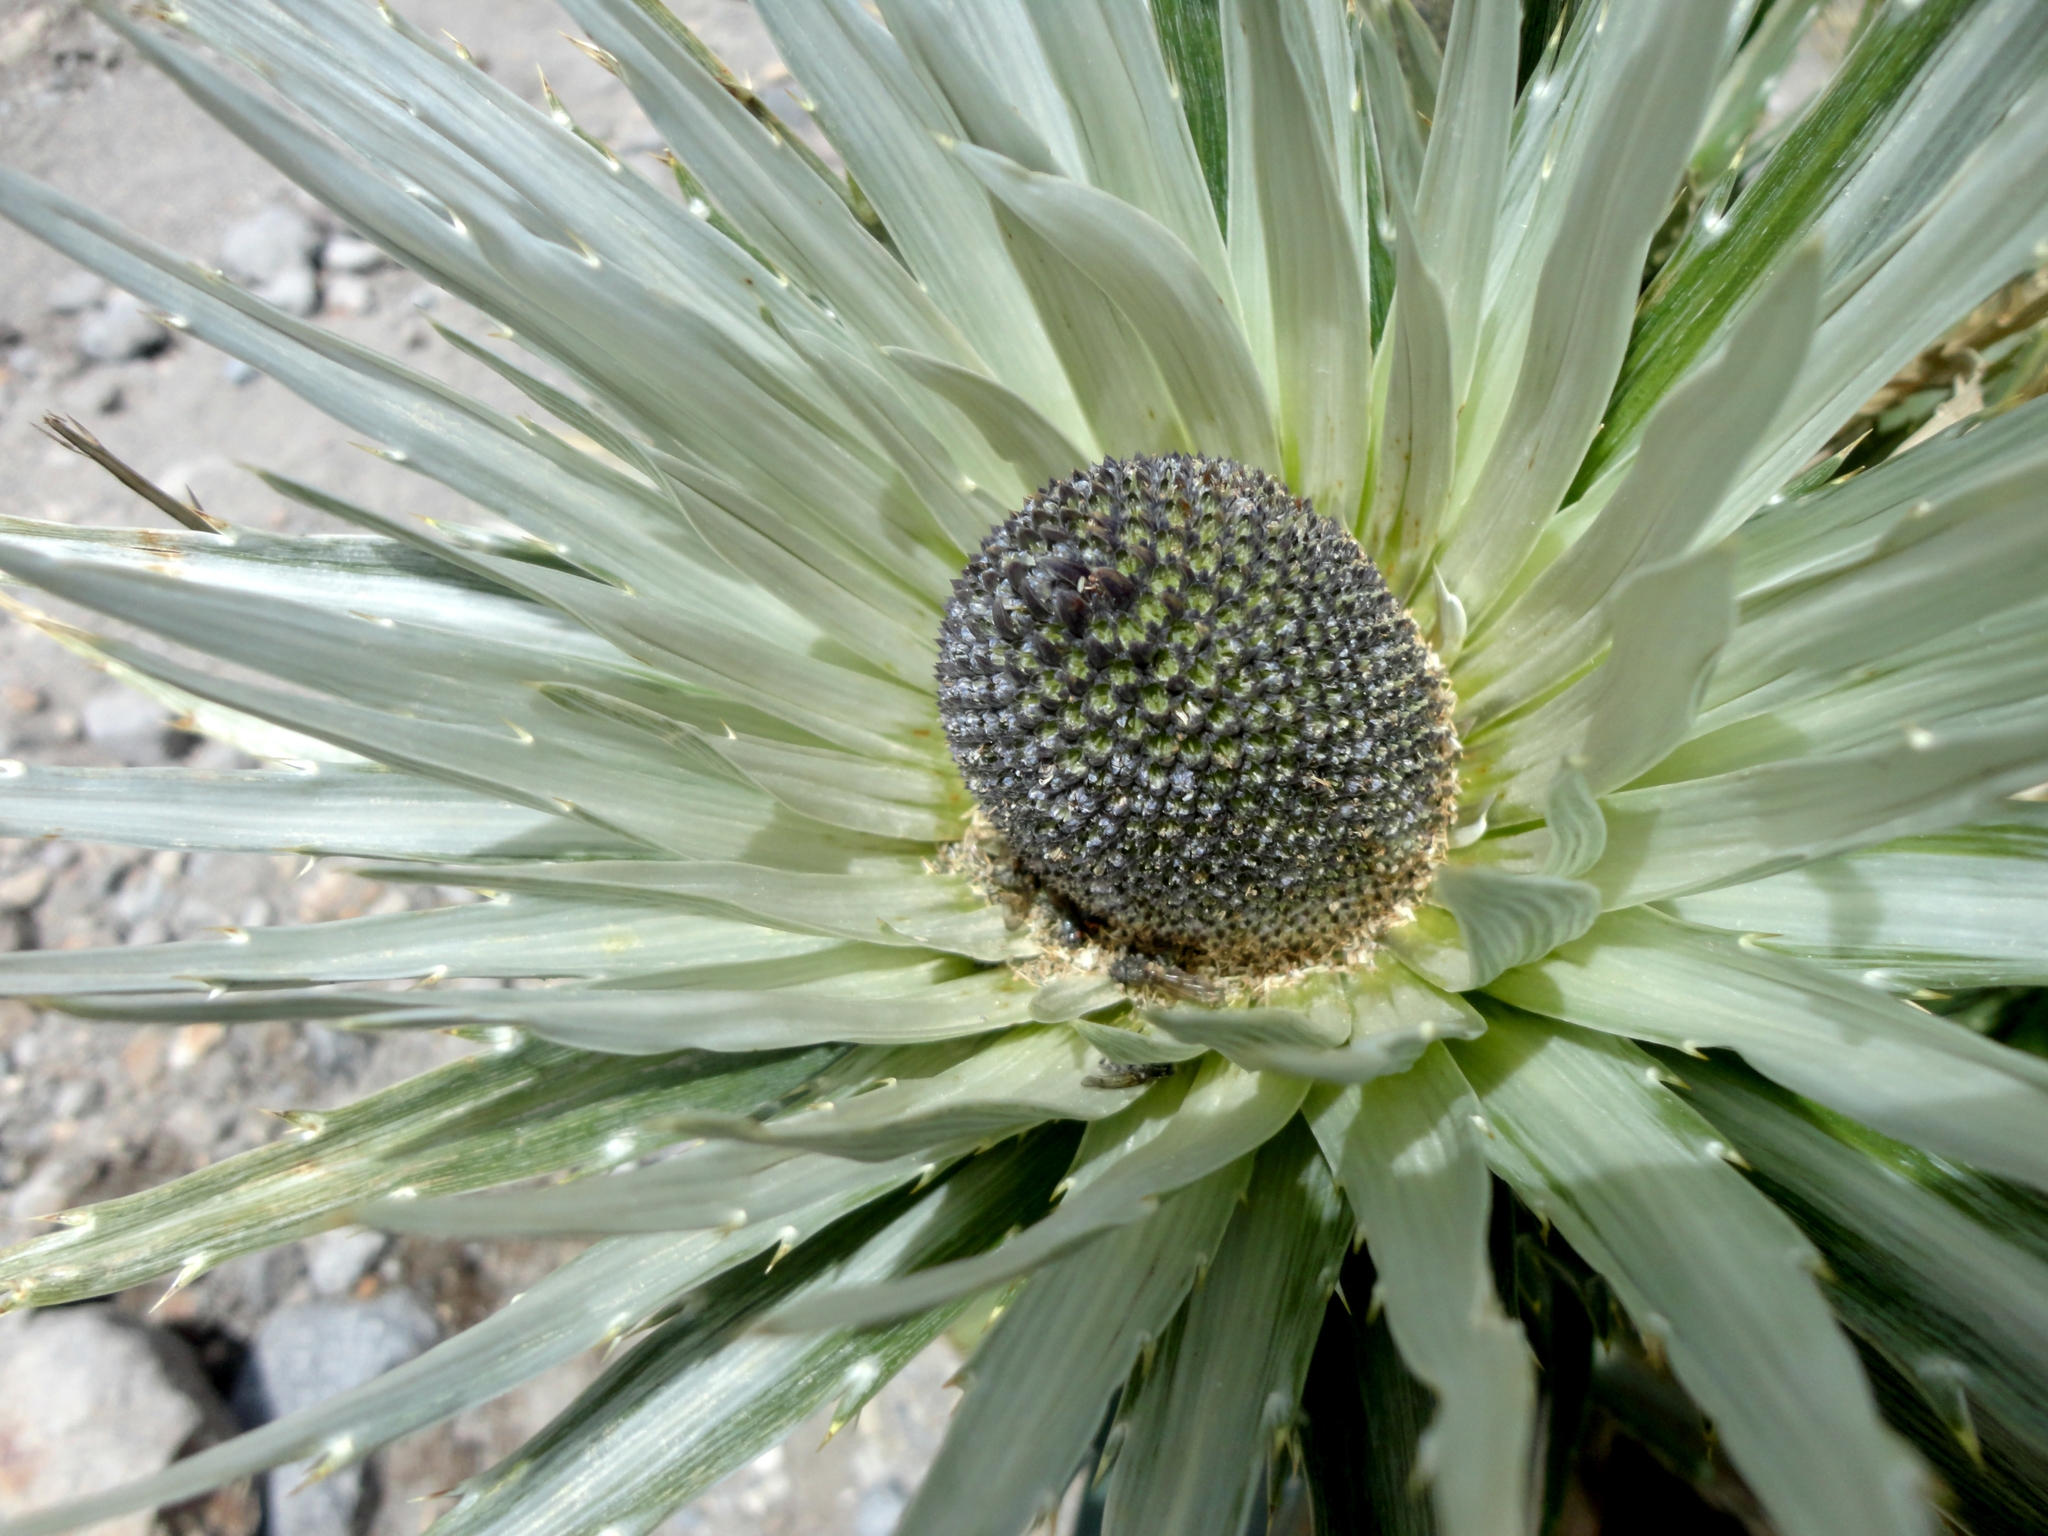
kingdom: Plantae
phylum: Tracheophyta
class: Magnoliopsida
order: Apiales
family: Apiaceae
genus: Eryngium
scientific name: Eryngium proteiflorum
